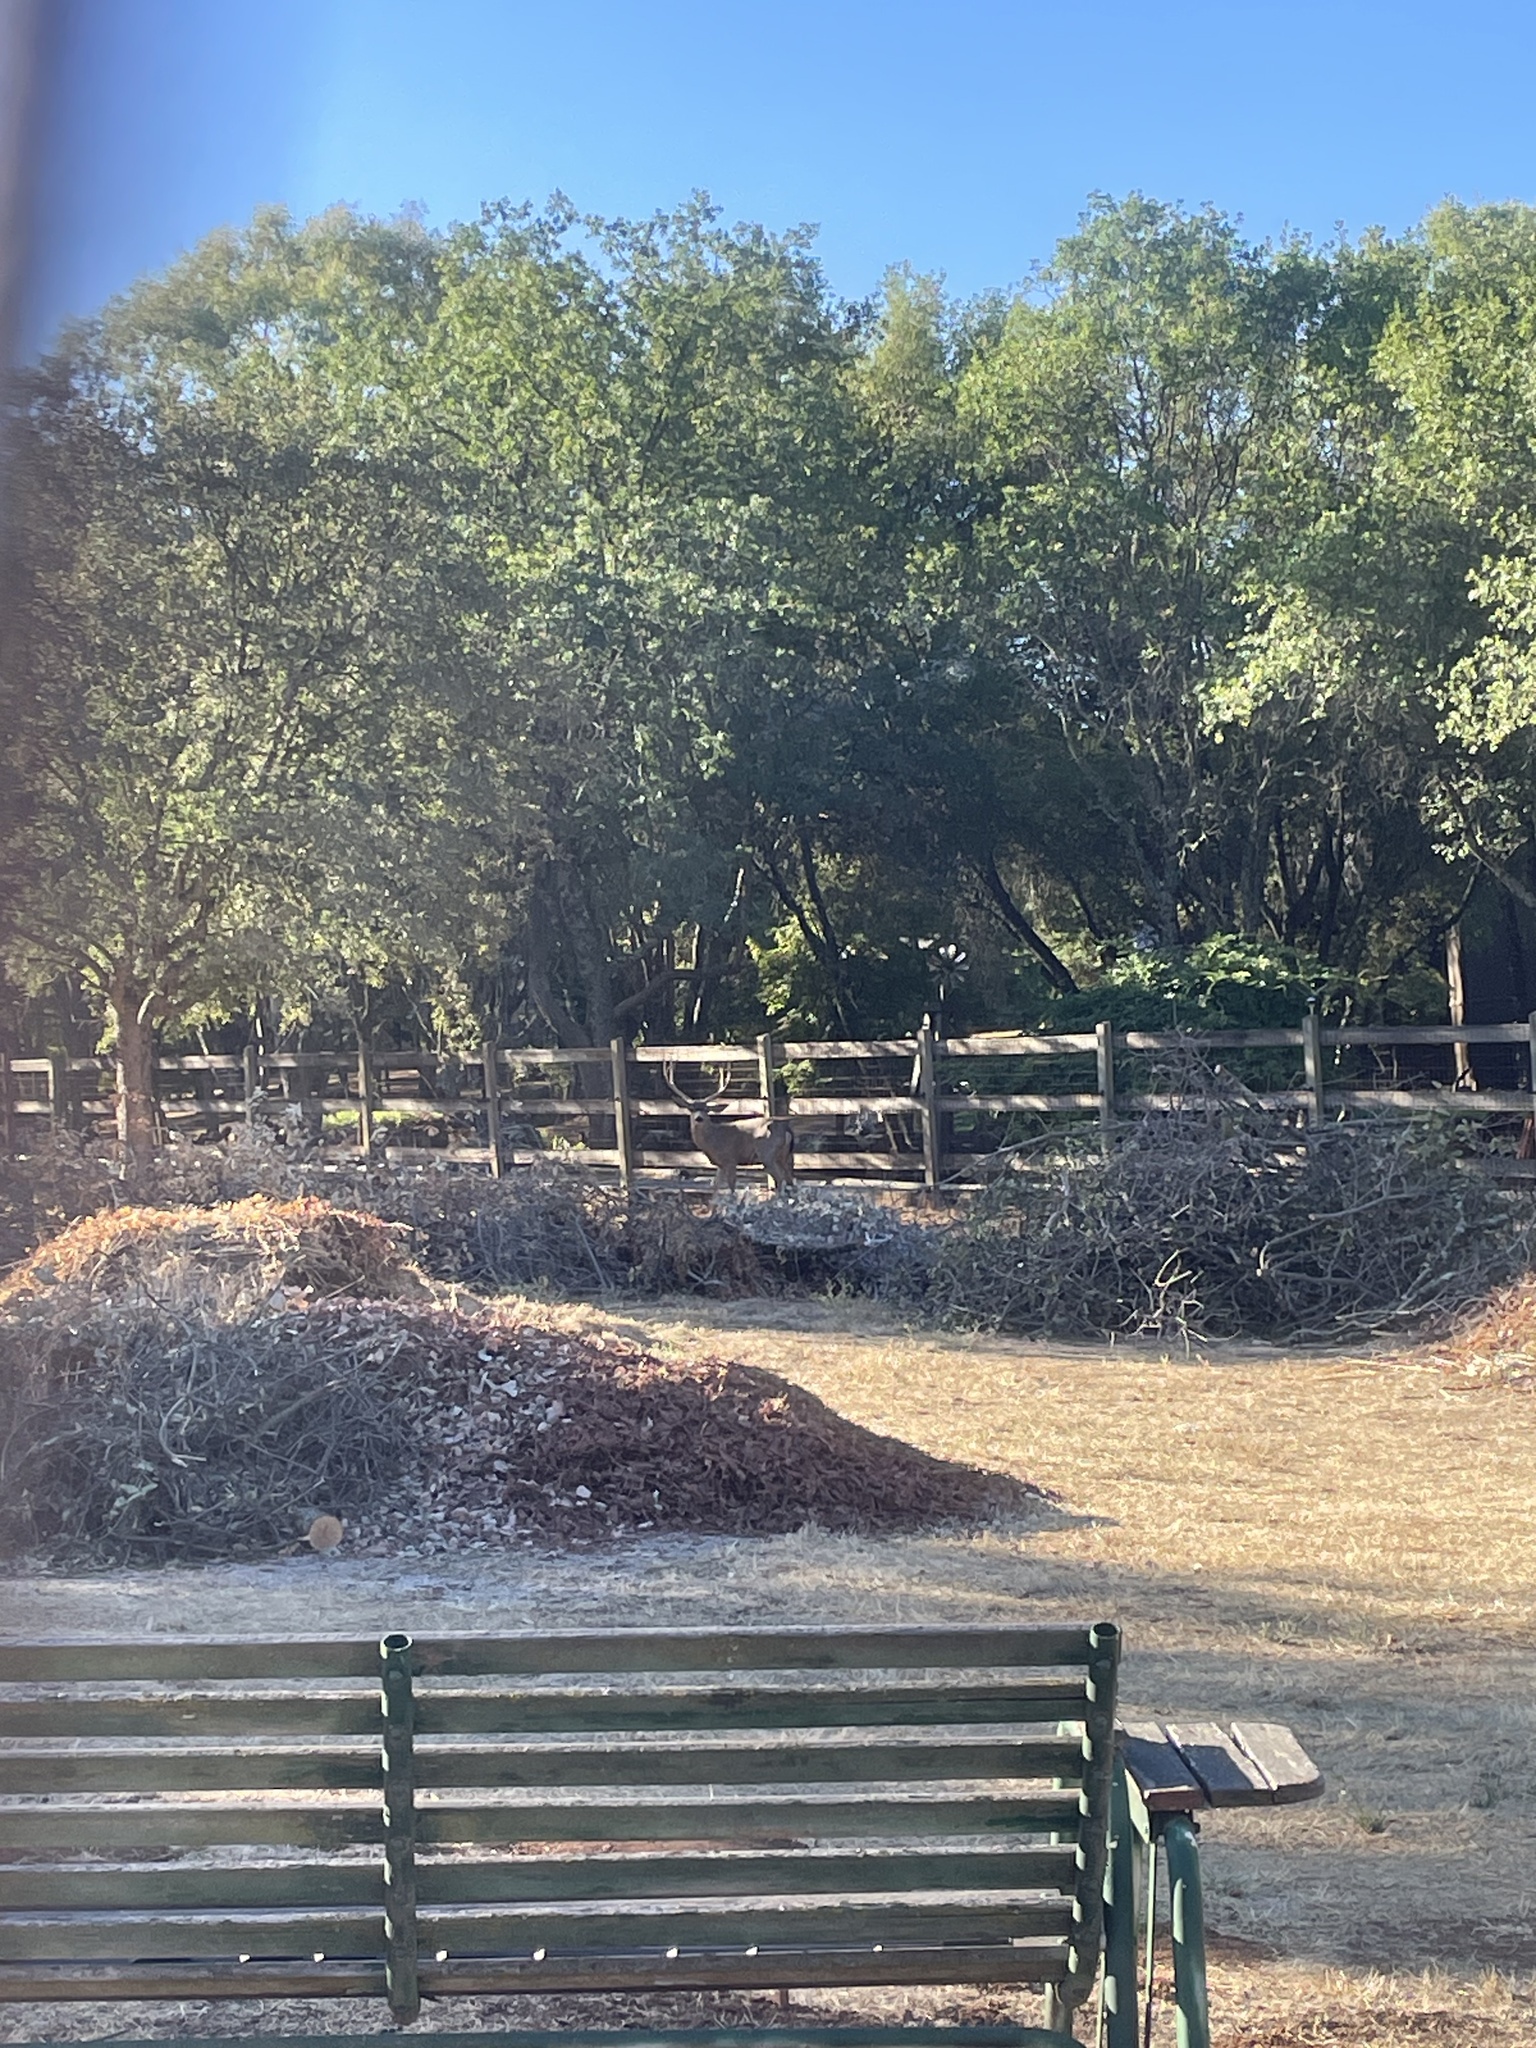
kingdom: Animalia
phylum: Chordata
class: Mammalia
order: Artiodactyla
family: Cervidae
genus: Odocoileus
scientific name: Odocoileus hemionus
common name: Mule deer
